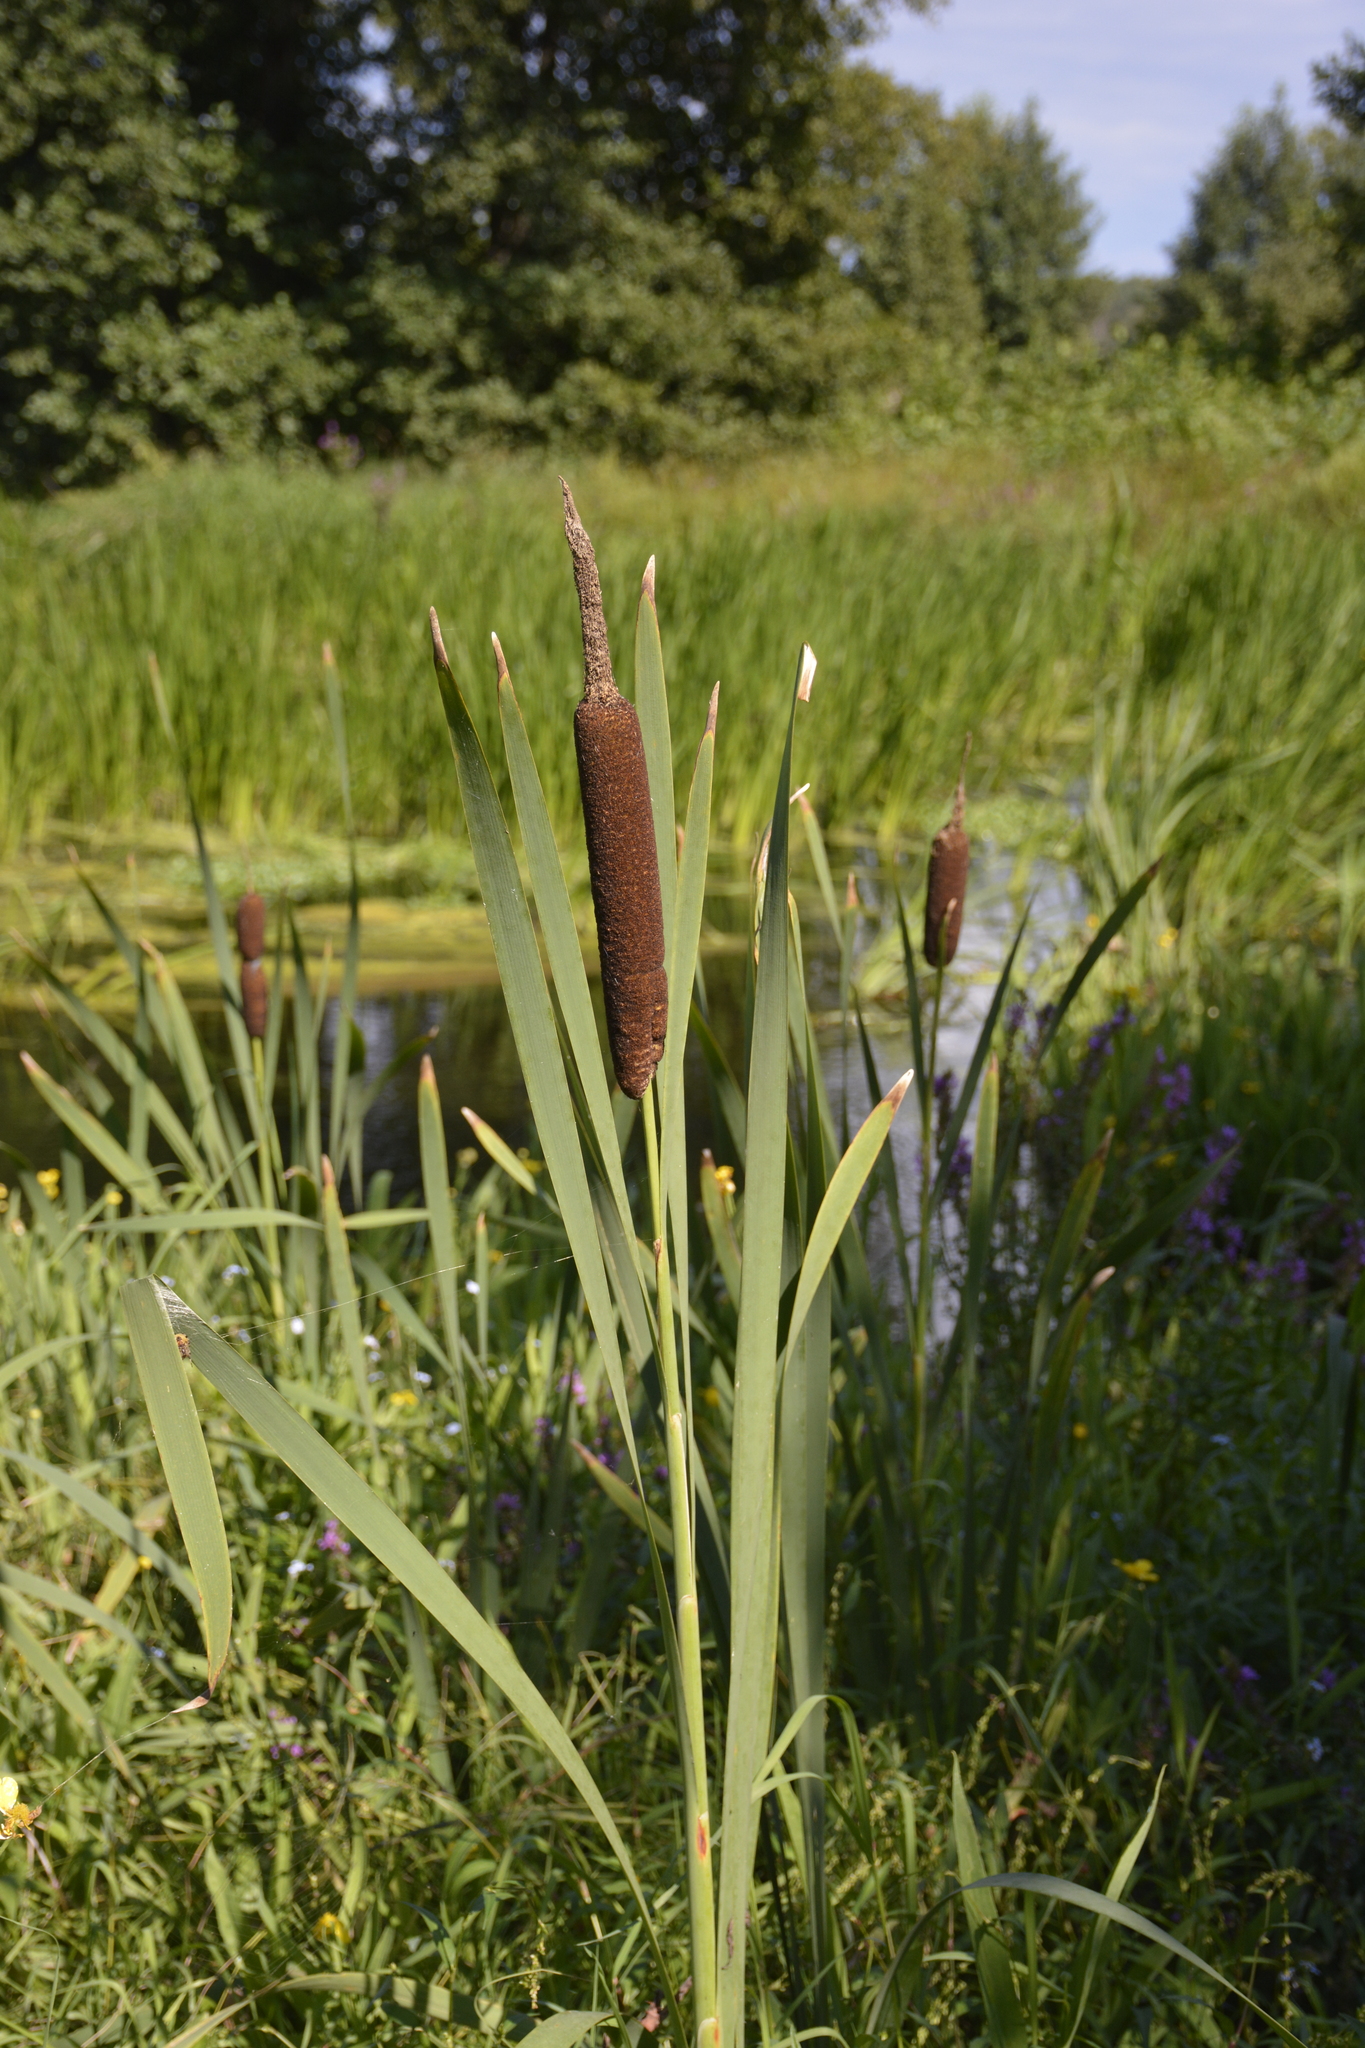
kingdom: Plantae
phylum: Tracheophyta
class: Liliopsida
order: Poales
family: Typhaceae
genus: Typha
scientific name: Typha latifolia
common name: Broadleaf cattail
